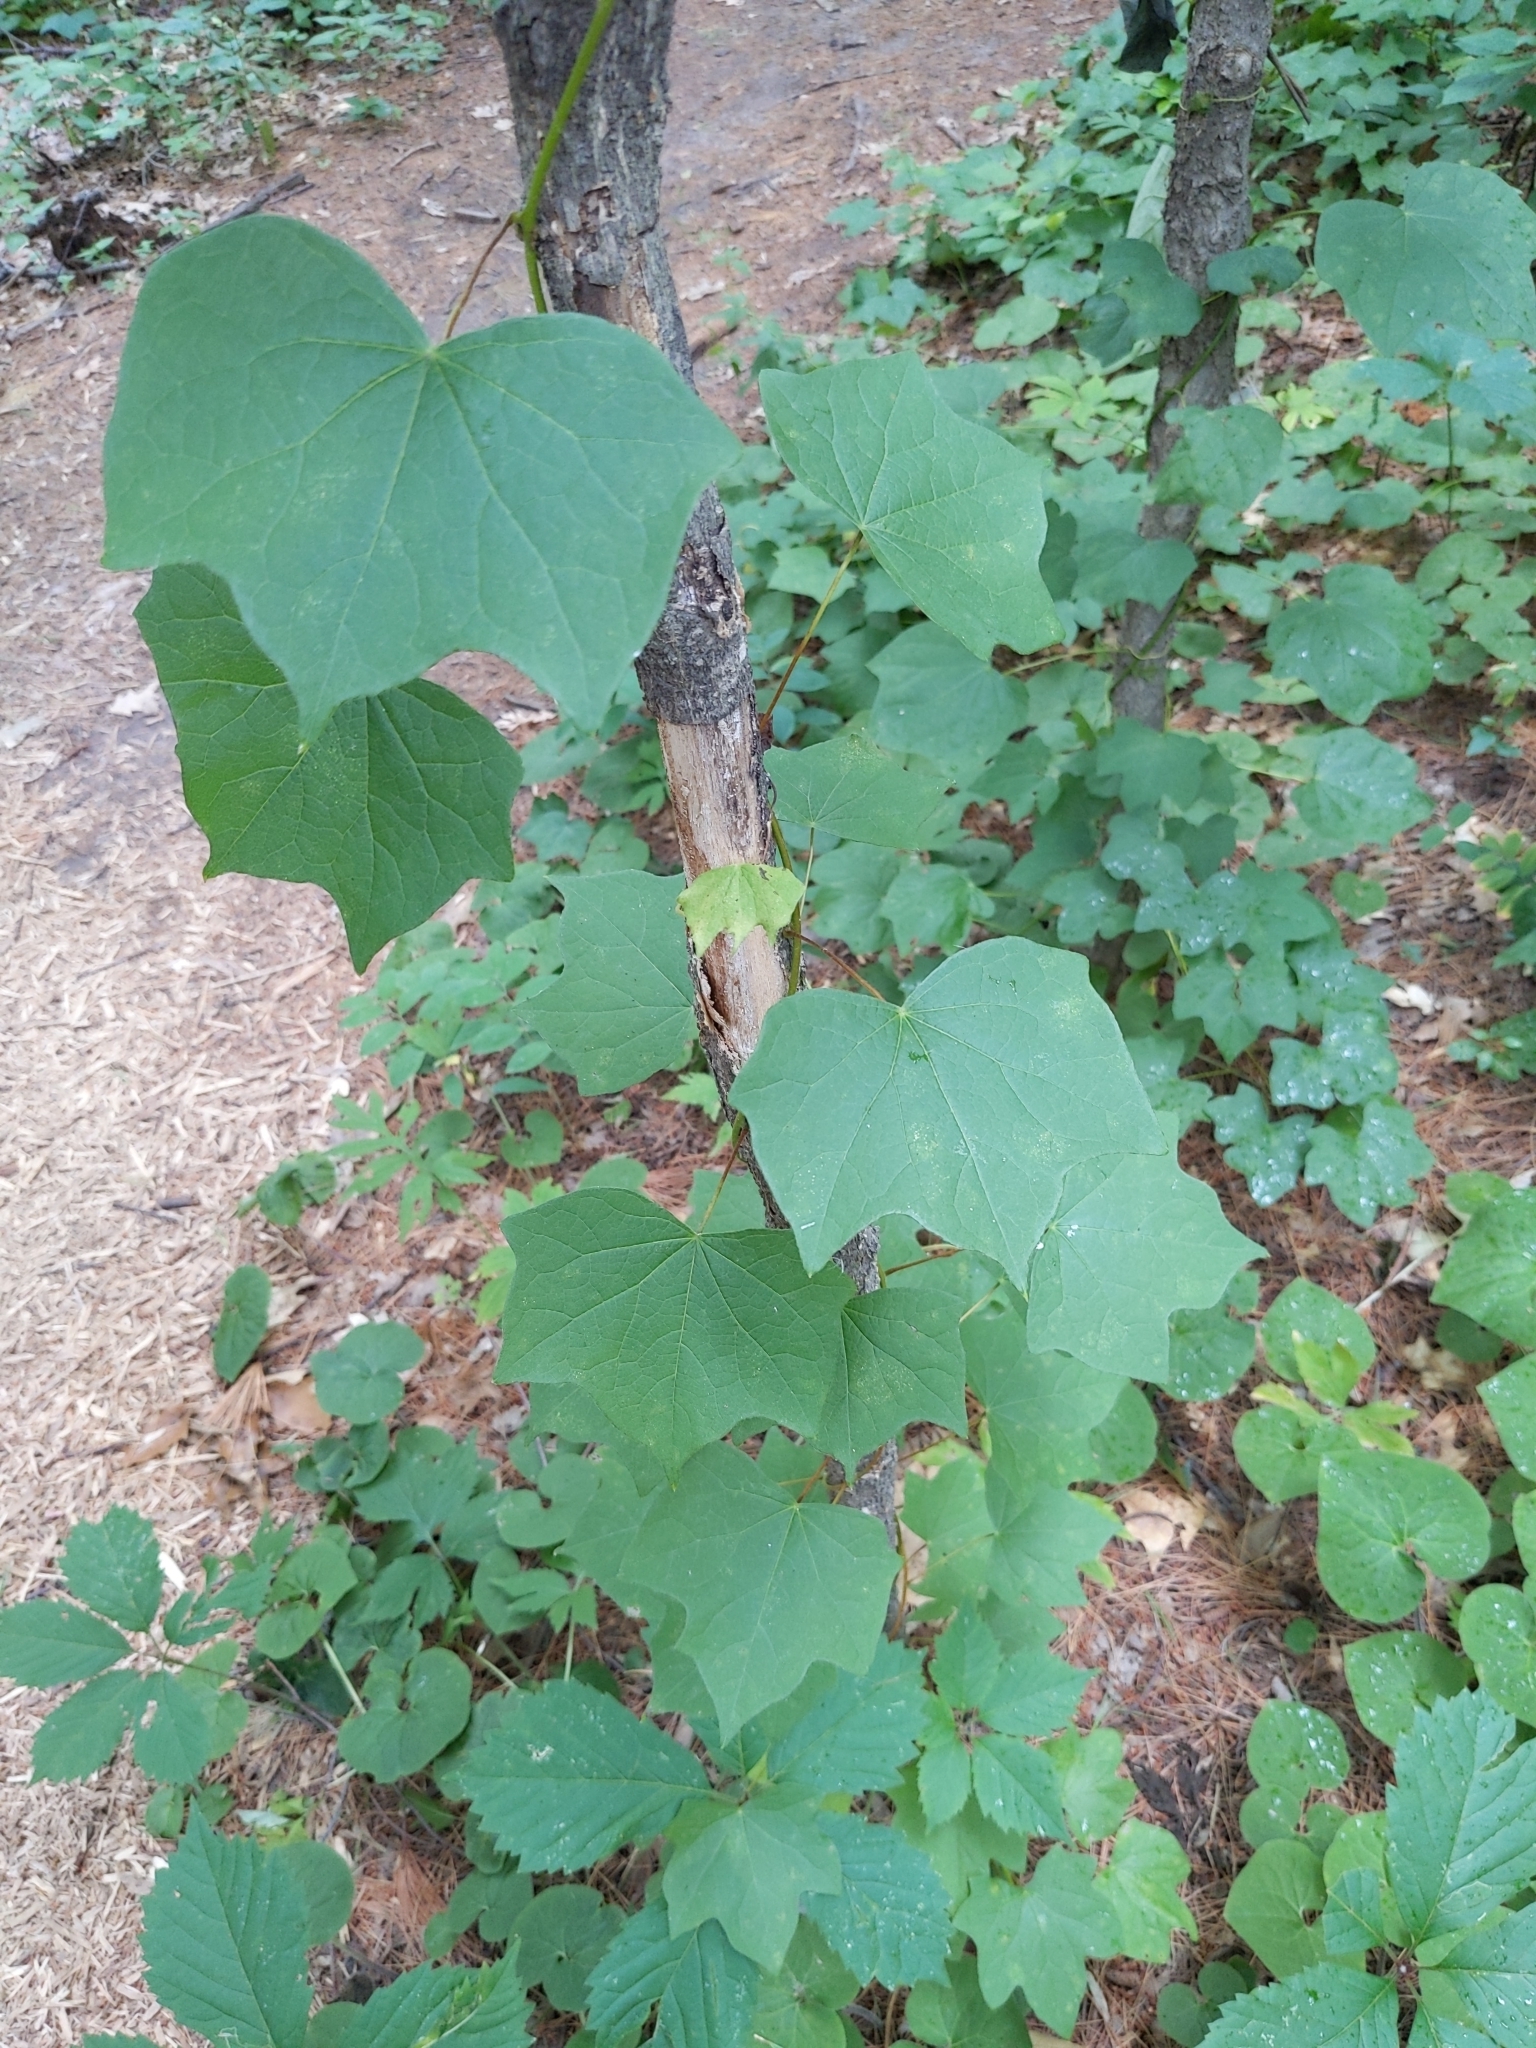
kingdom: Plantae
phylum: Tracheophyta
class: Magnoliopsida
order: Ranunculales
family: Menispermaceae
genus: Menispermum
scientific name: Menispermum canadense
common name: Moonseed
